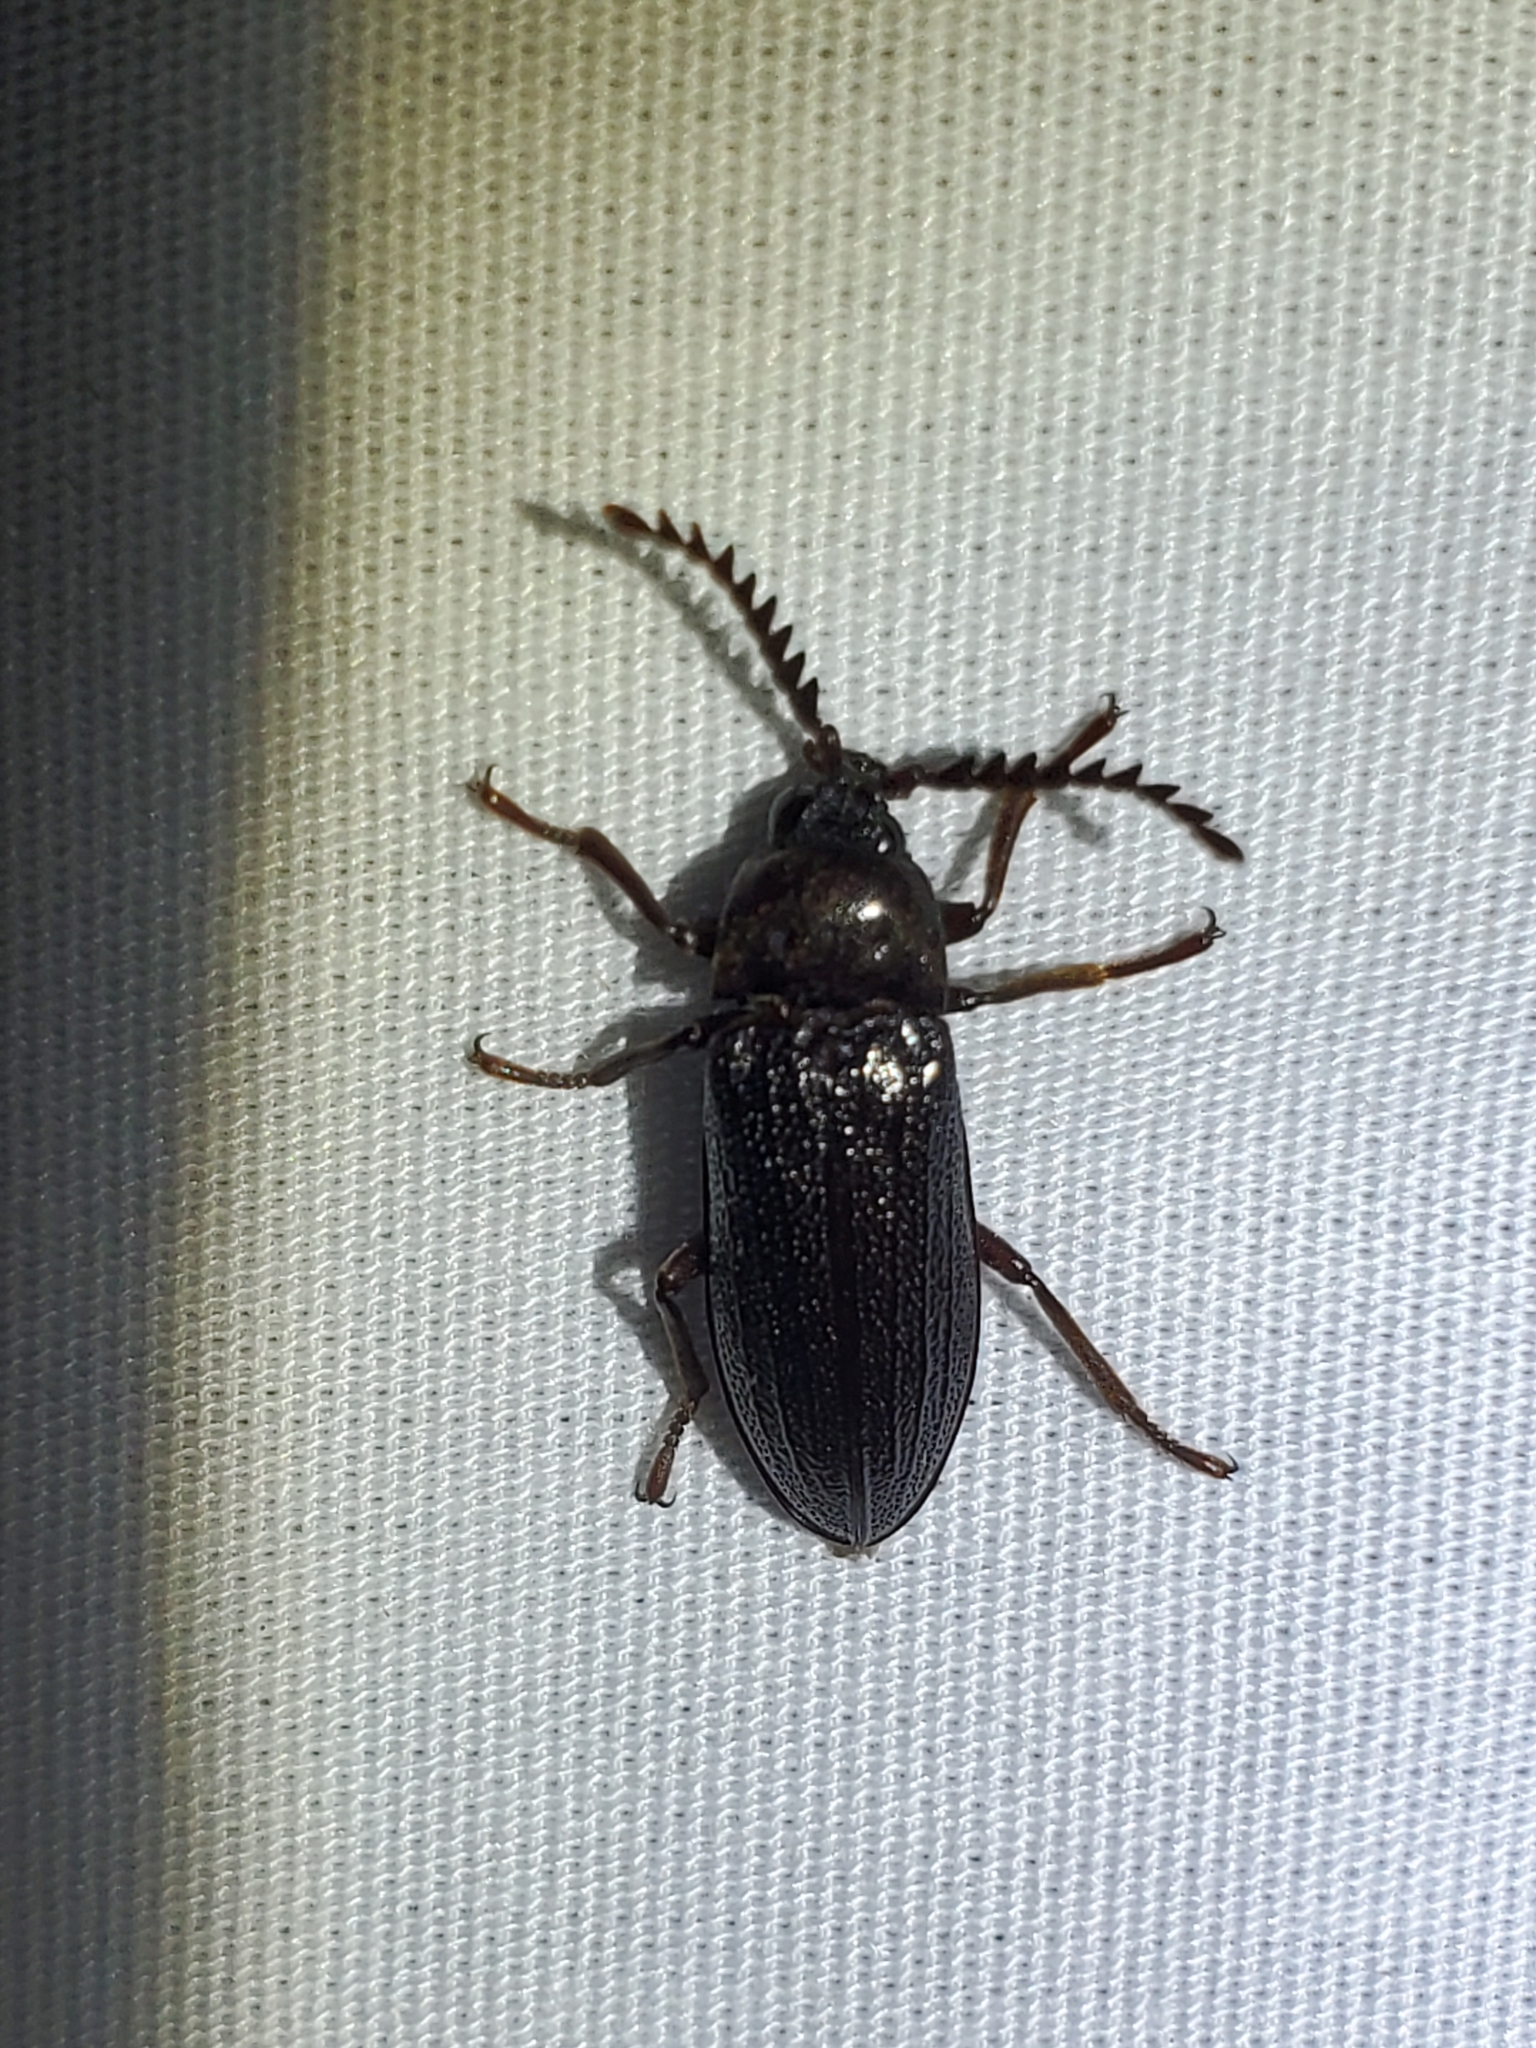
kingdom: Animalia
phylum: Arthropoda
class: Insecta
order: Coleoptera
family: Callirhipidae
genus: Zenoa
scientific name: Zenoa picea
